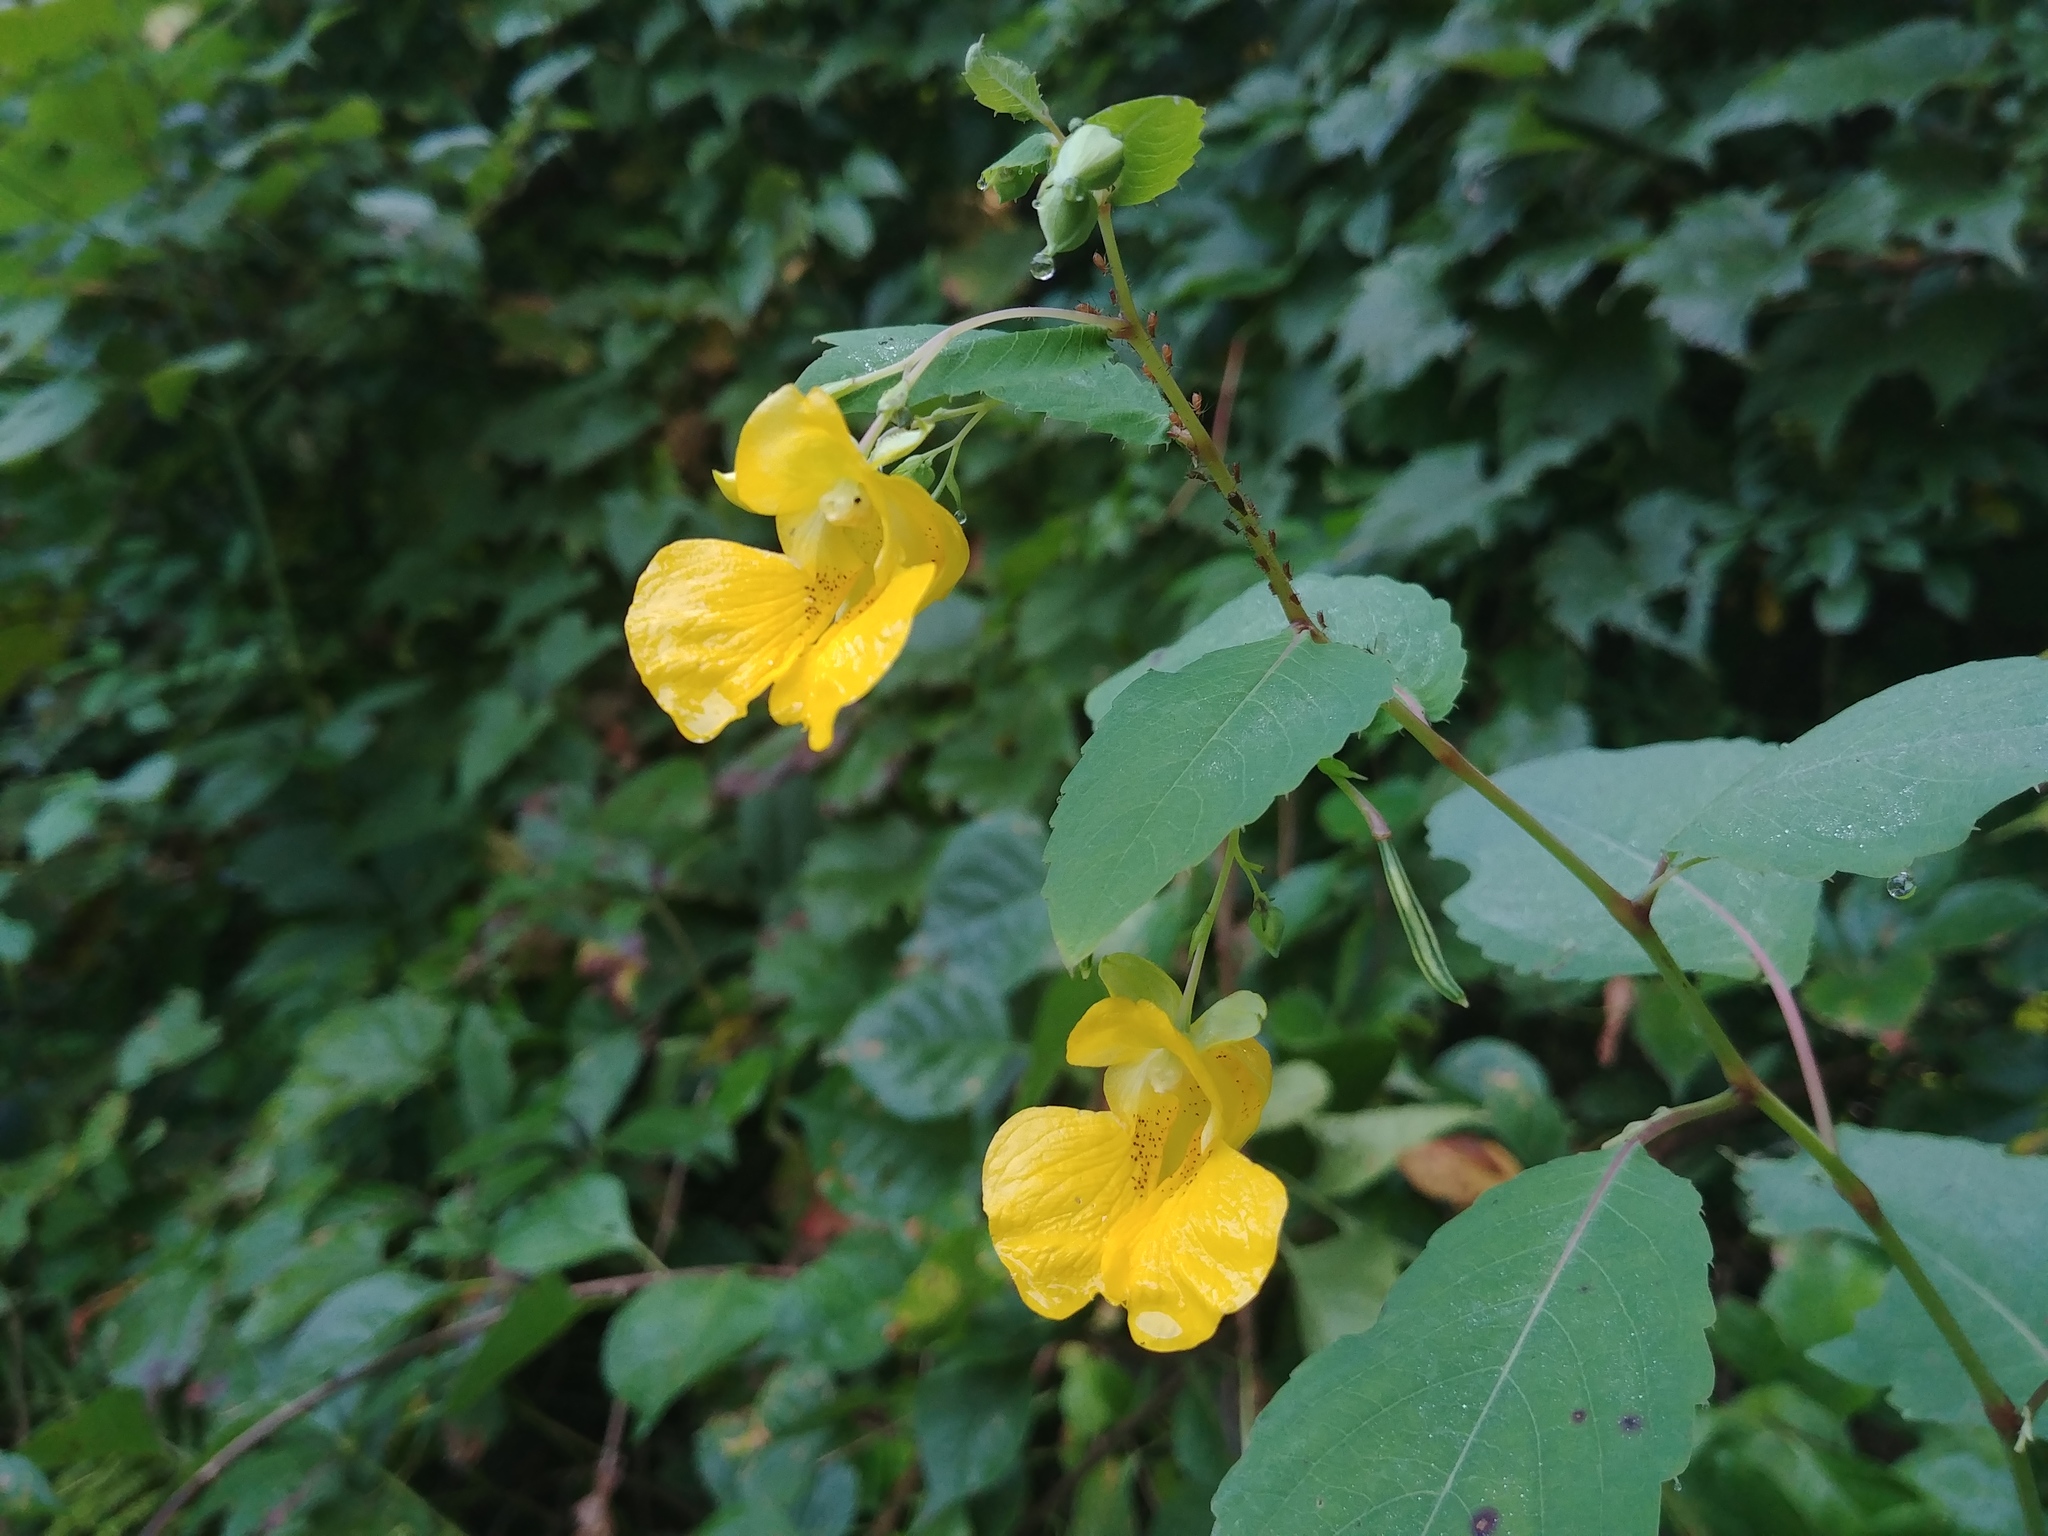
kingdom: Plantae
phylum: Tracheophyta
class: Magnoliopsida
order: Ericales
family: Balsaminaceae
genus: Impatiens
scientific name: Impatiens pallida
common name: Pale snapweed
